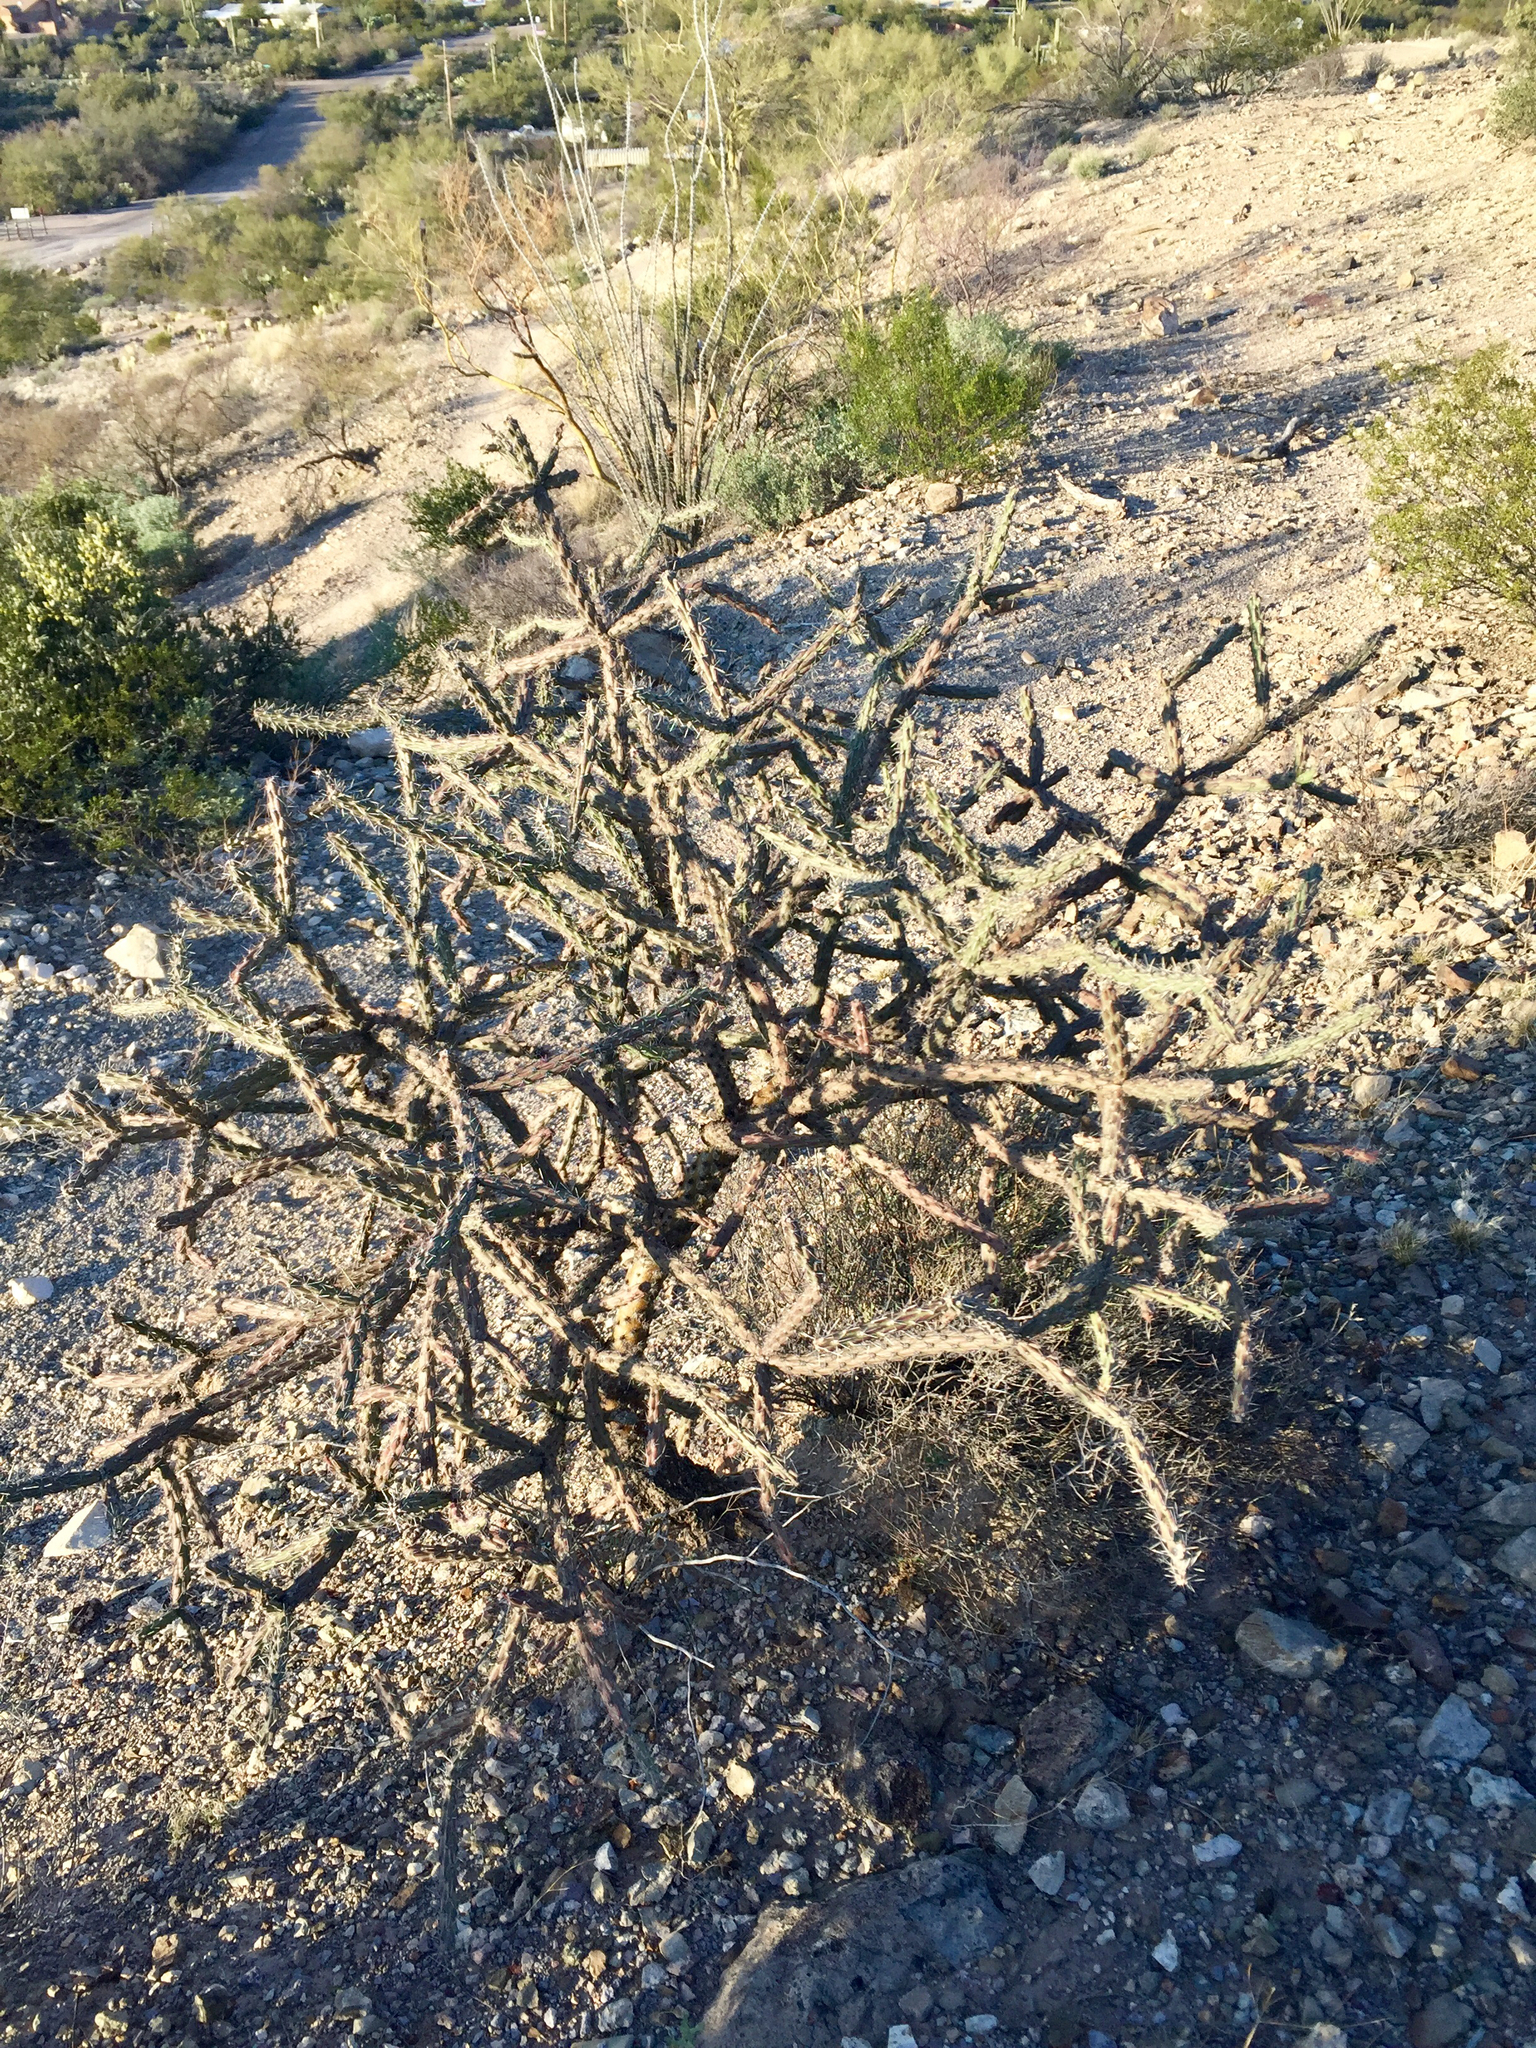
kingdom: Plantae
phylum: Tracheophyta
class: Magnoliopsida
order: Caryophyllales
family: Cactaceae
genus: Cylindropuntia
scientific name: Cylindropuntia acanthocarpa
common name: Buckhorn cholla
